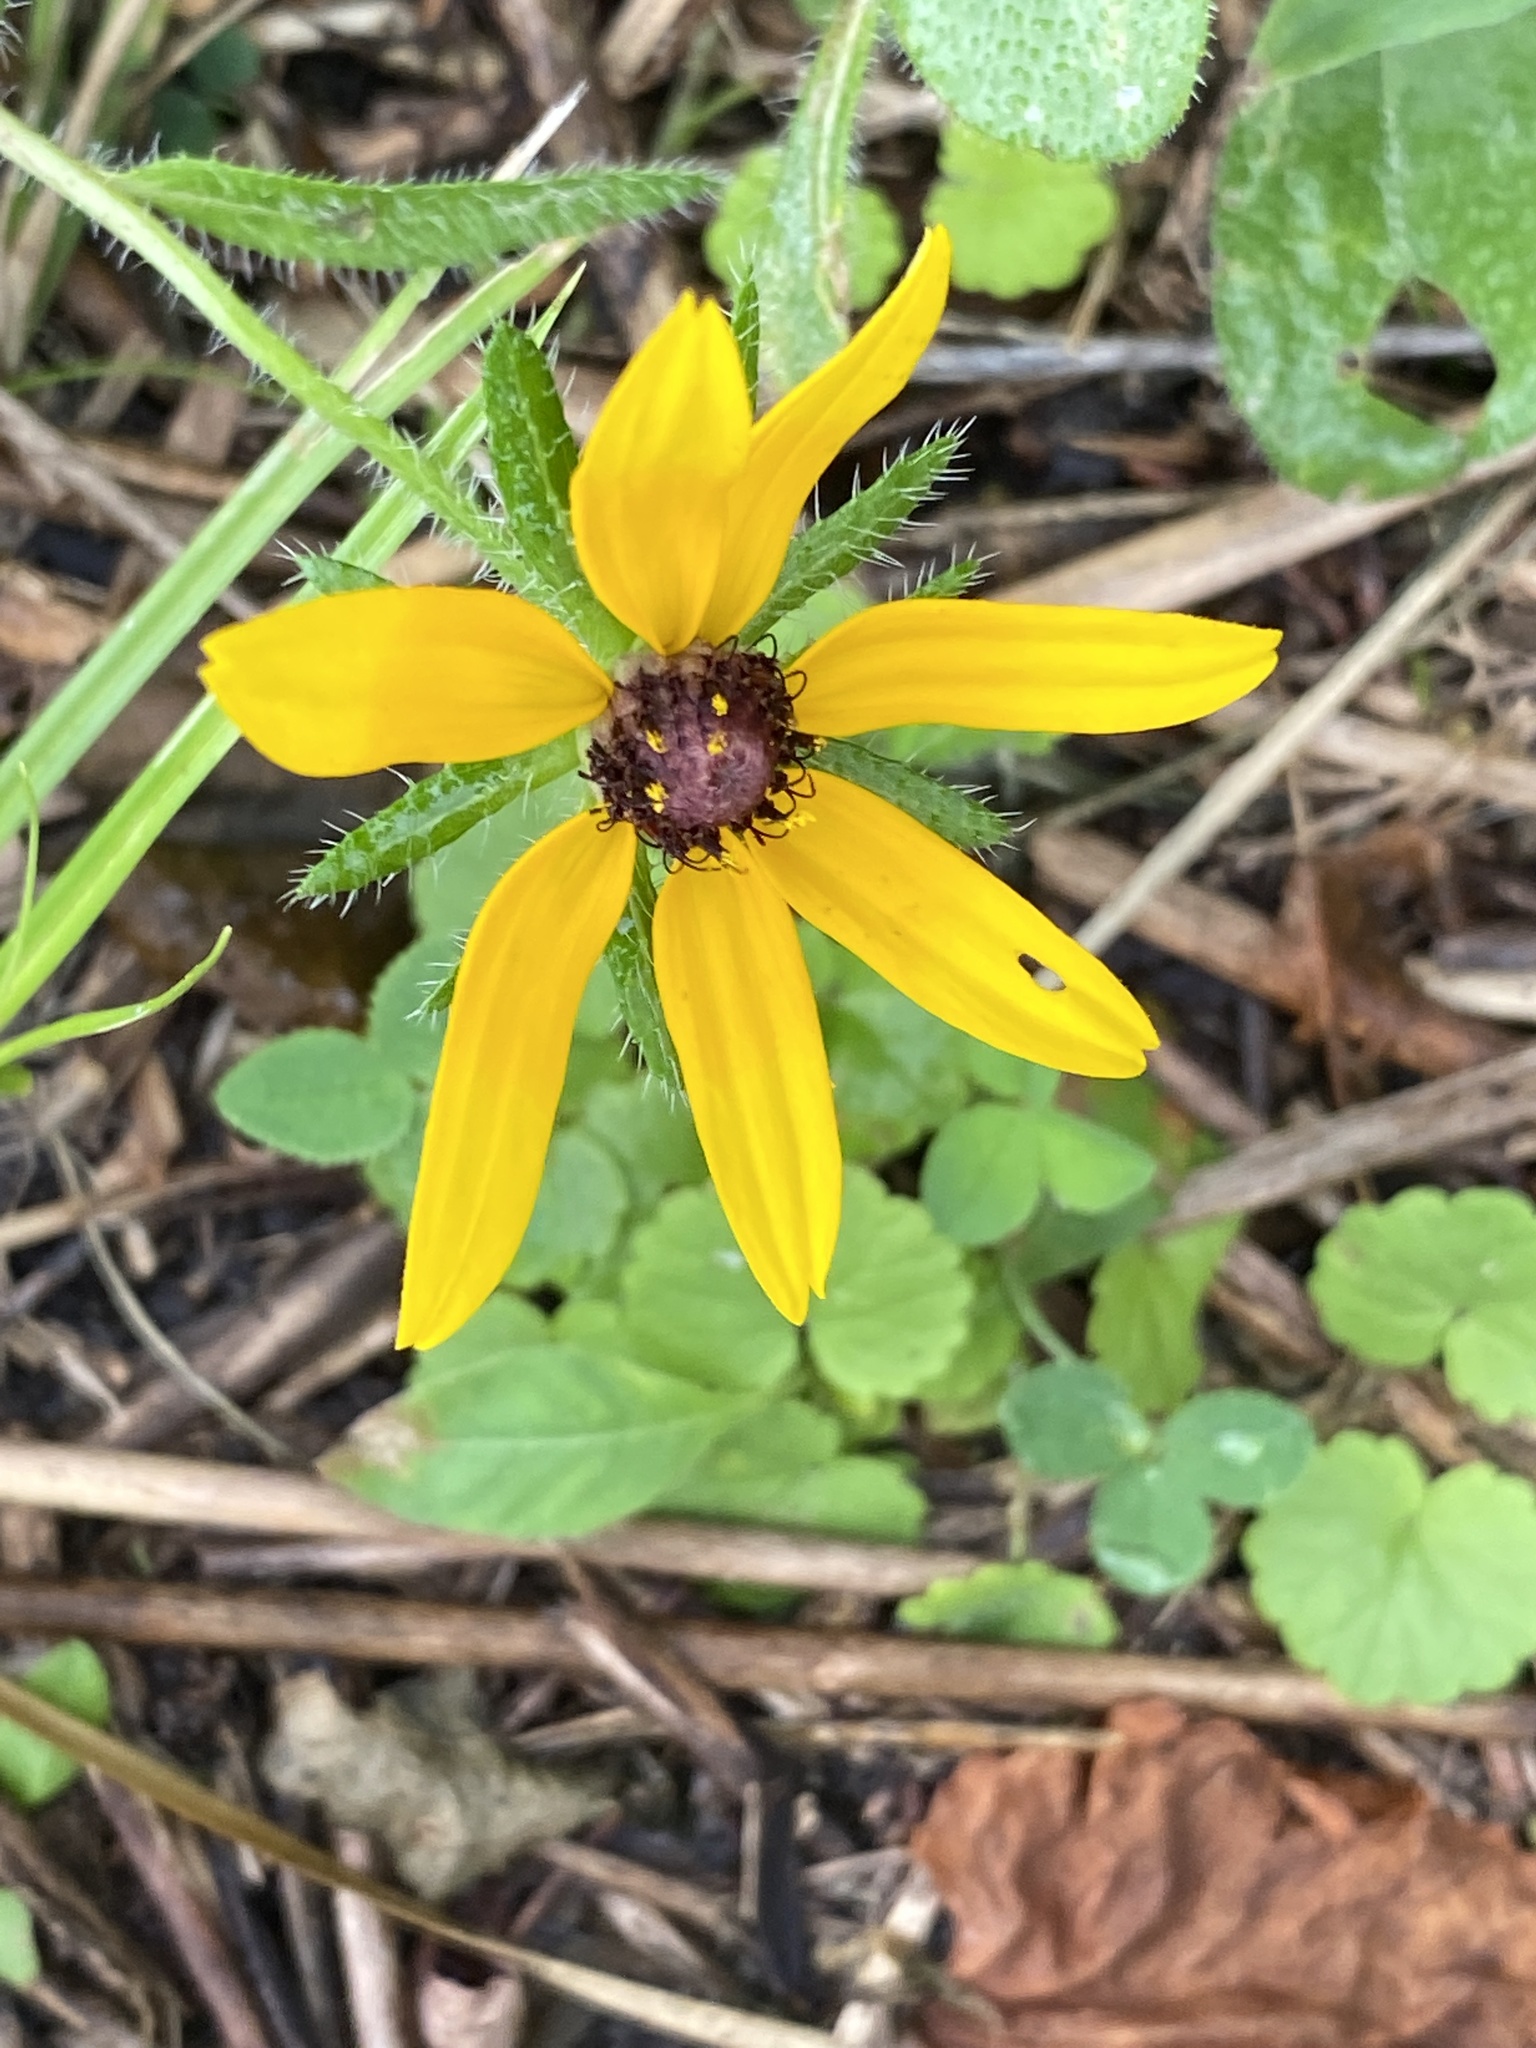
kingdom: Plantae
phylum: Tracheophyta
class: Magnoliopsida
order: Asterales
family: Asteraceae
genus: Rudbeckia
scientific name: Rudbeckia hirta
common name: Black-eyed-susan
